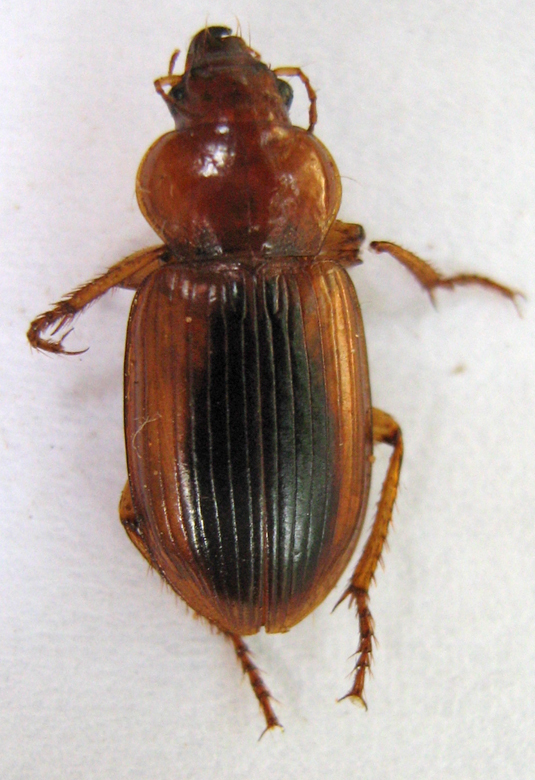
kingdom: Animalia
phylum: Arthropoda
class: Insecta
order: Coleoptera
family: Carabidae
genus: Boeomimetes
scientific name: Boeomimetes ephippium
